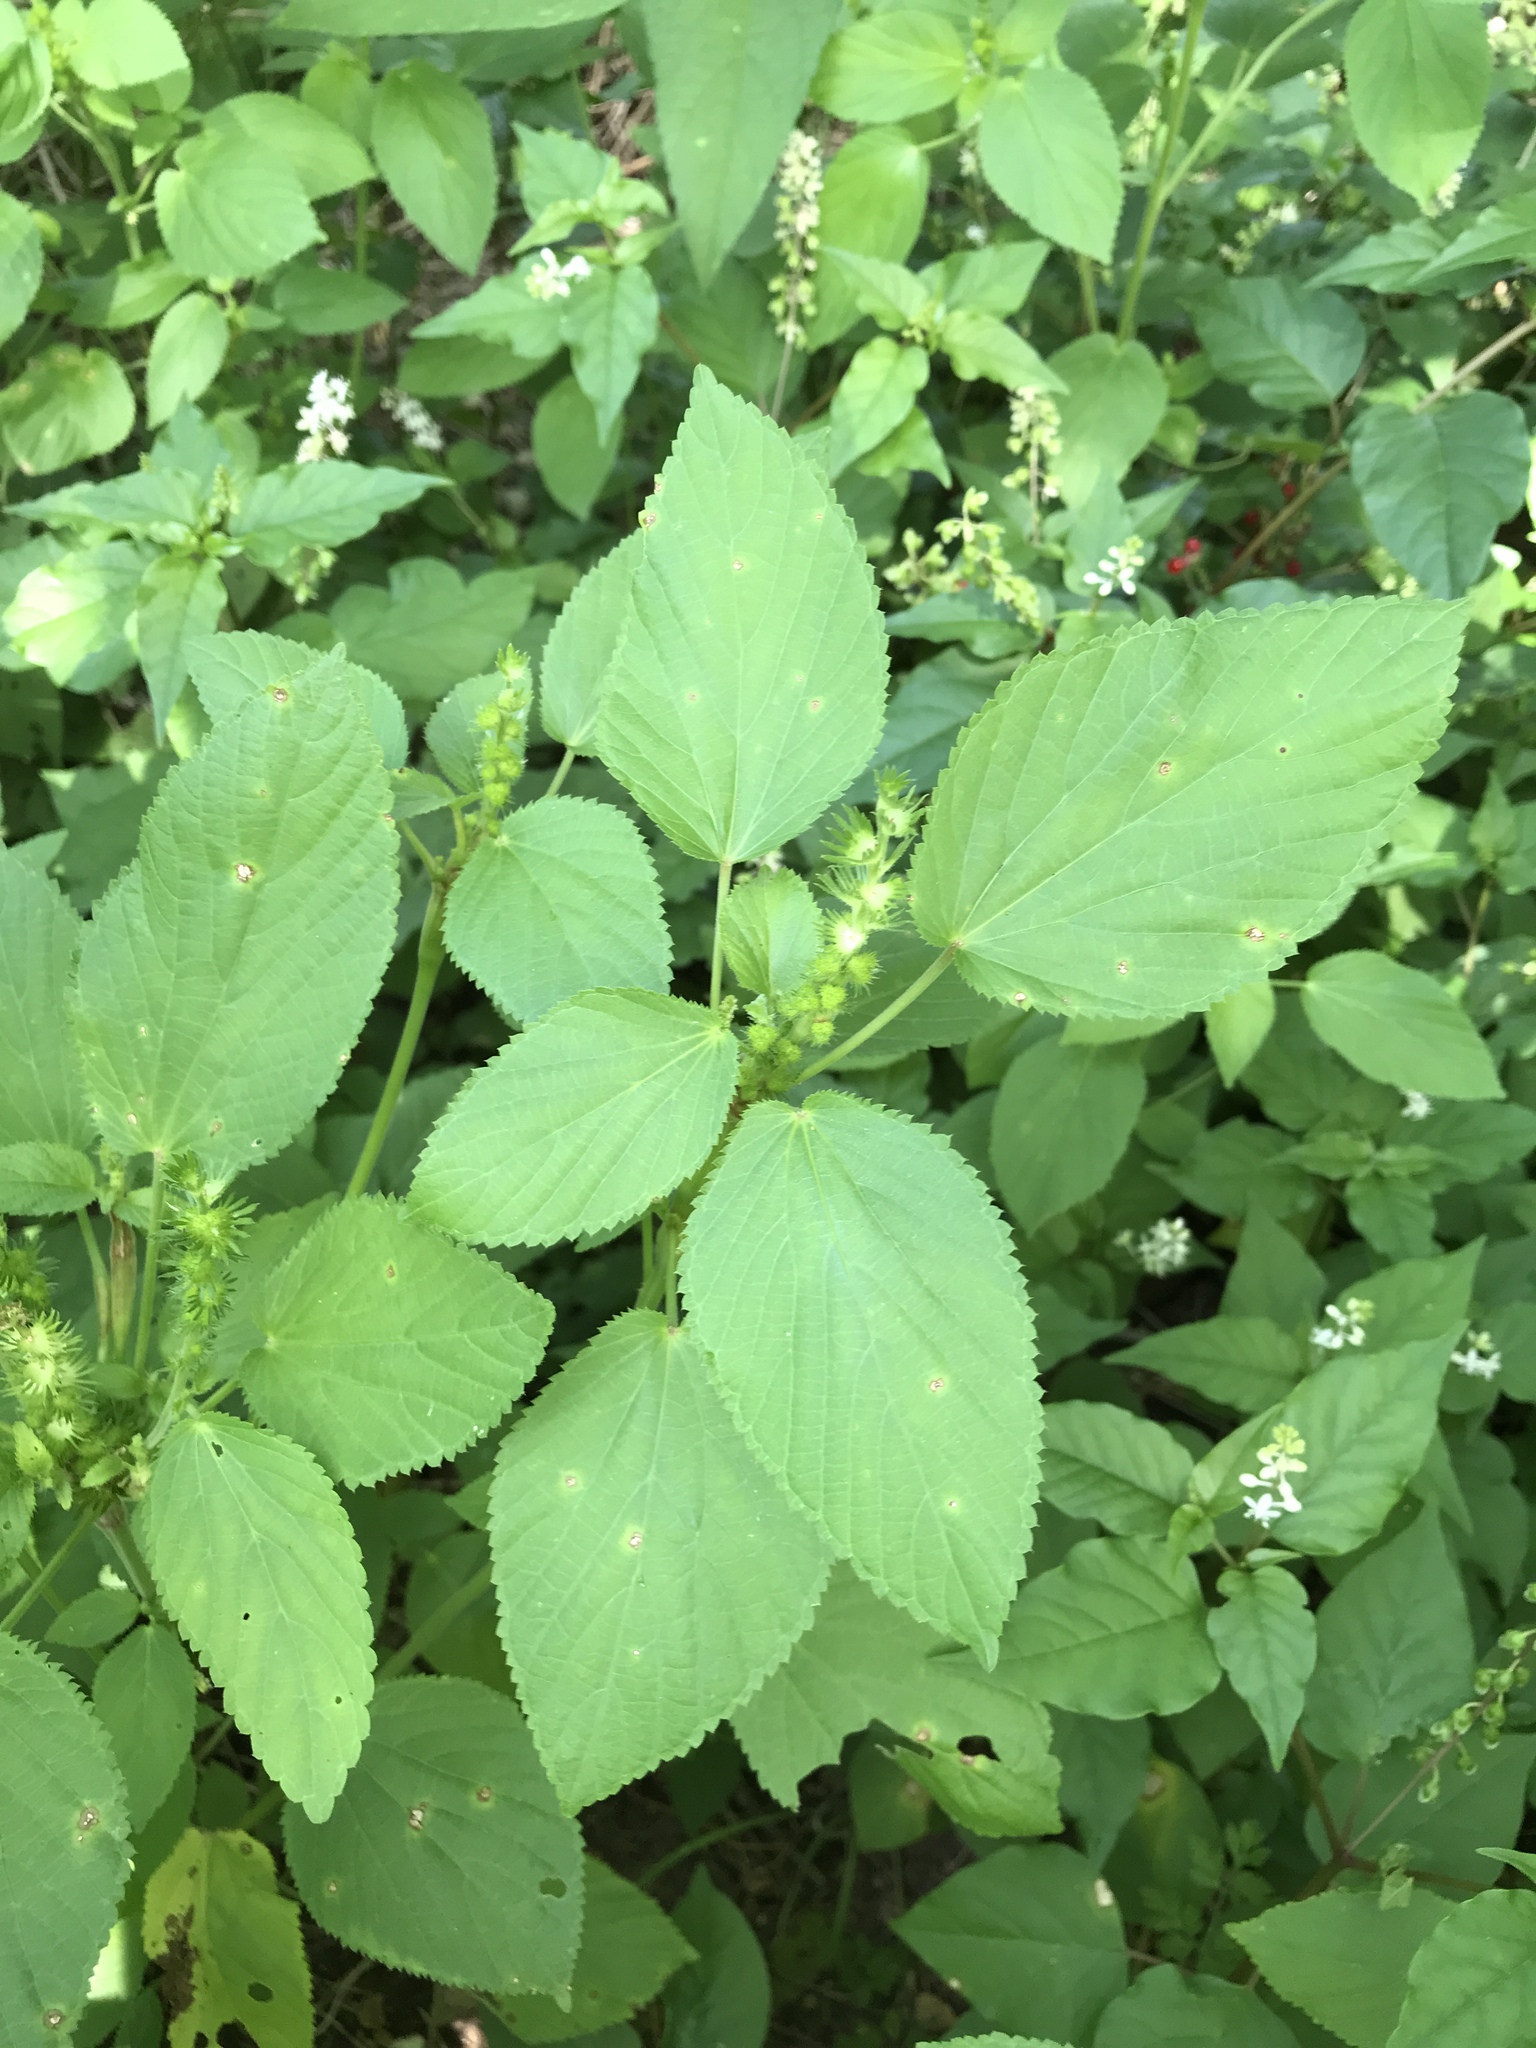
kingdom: Plantae
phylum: Tracheophyta
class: Magnoliopsida
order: Malpighiales
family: Euphorbiaceae
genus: Acalypha
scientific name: Acalypha ostryifolia
